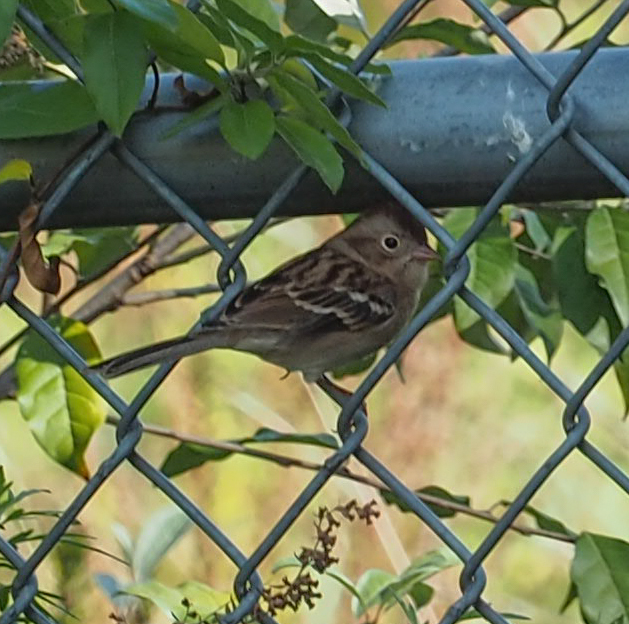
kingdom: Animalia
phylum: Chordata
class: Aves
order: Passeriformes
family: Passerellidae
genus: Spizella
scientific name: Spizella pusilla
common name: Field sparrow
